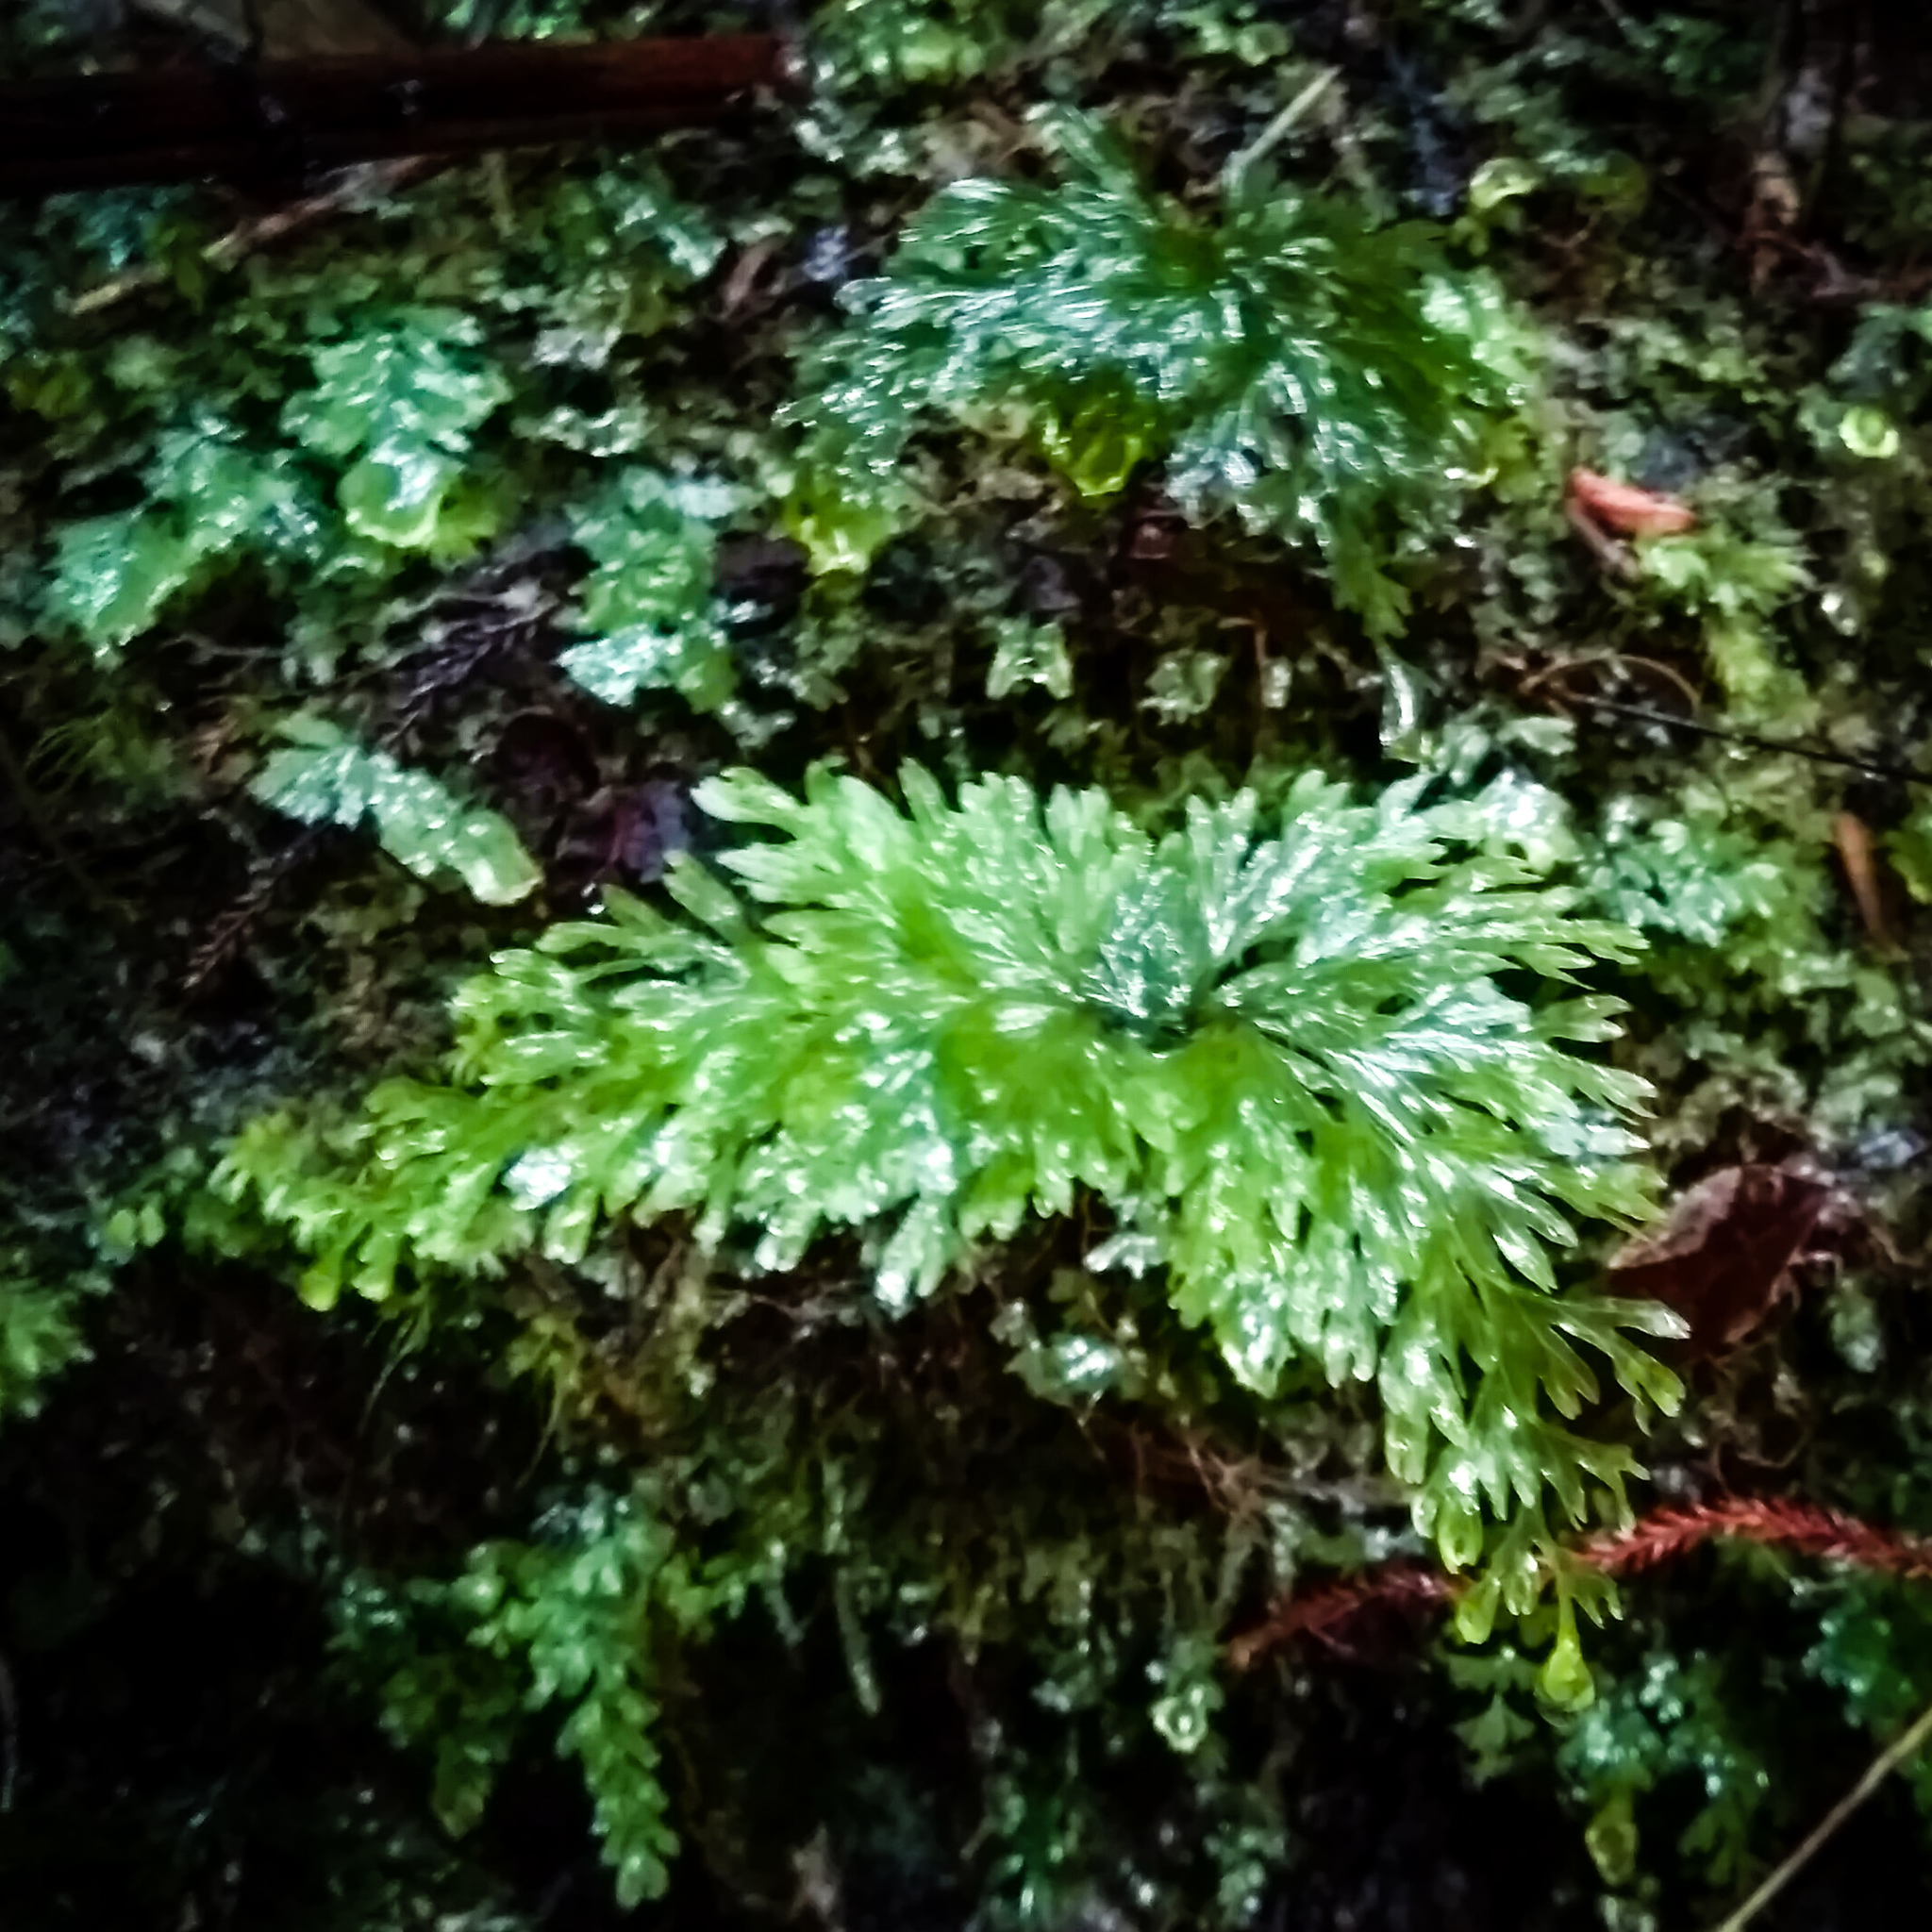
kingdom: Plantae
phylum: Tracheophyta
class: Polypodiopsida
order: Hymenophyllales
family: Hymenophyllaceae
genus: Hymenophyllum
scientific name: Hymenophyllum flabellatum
